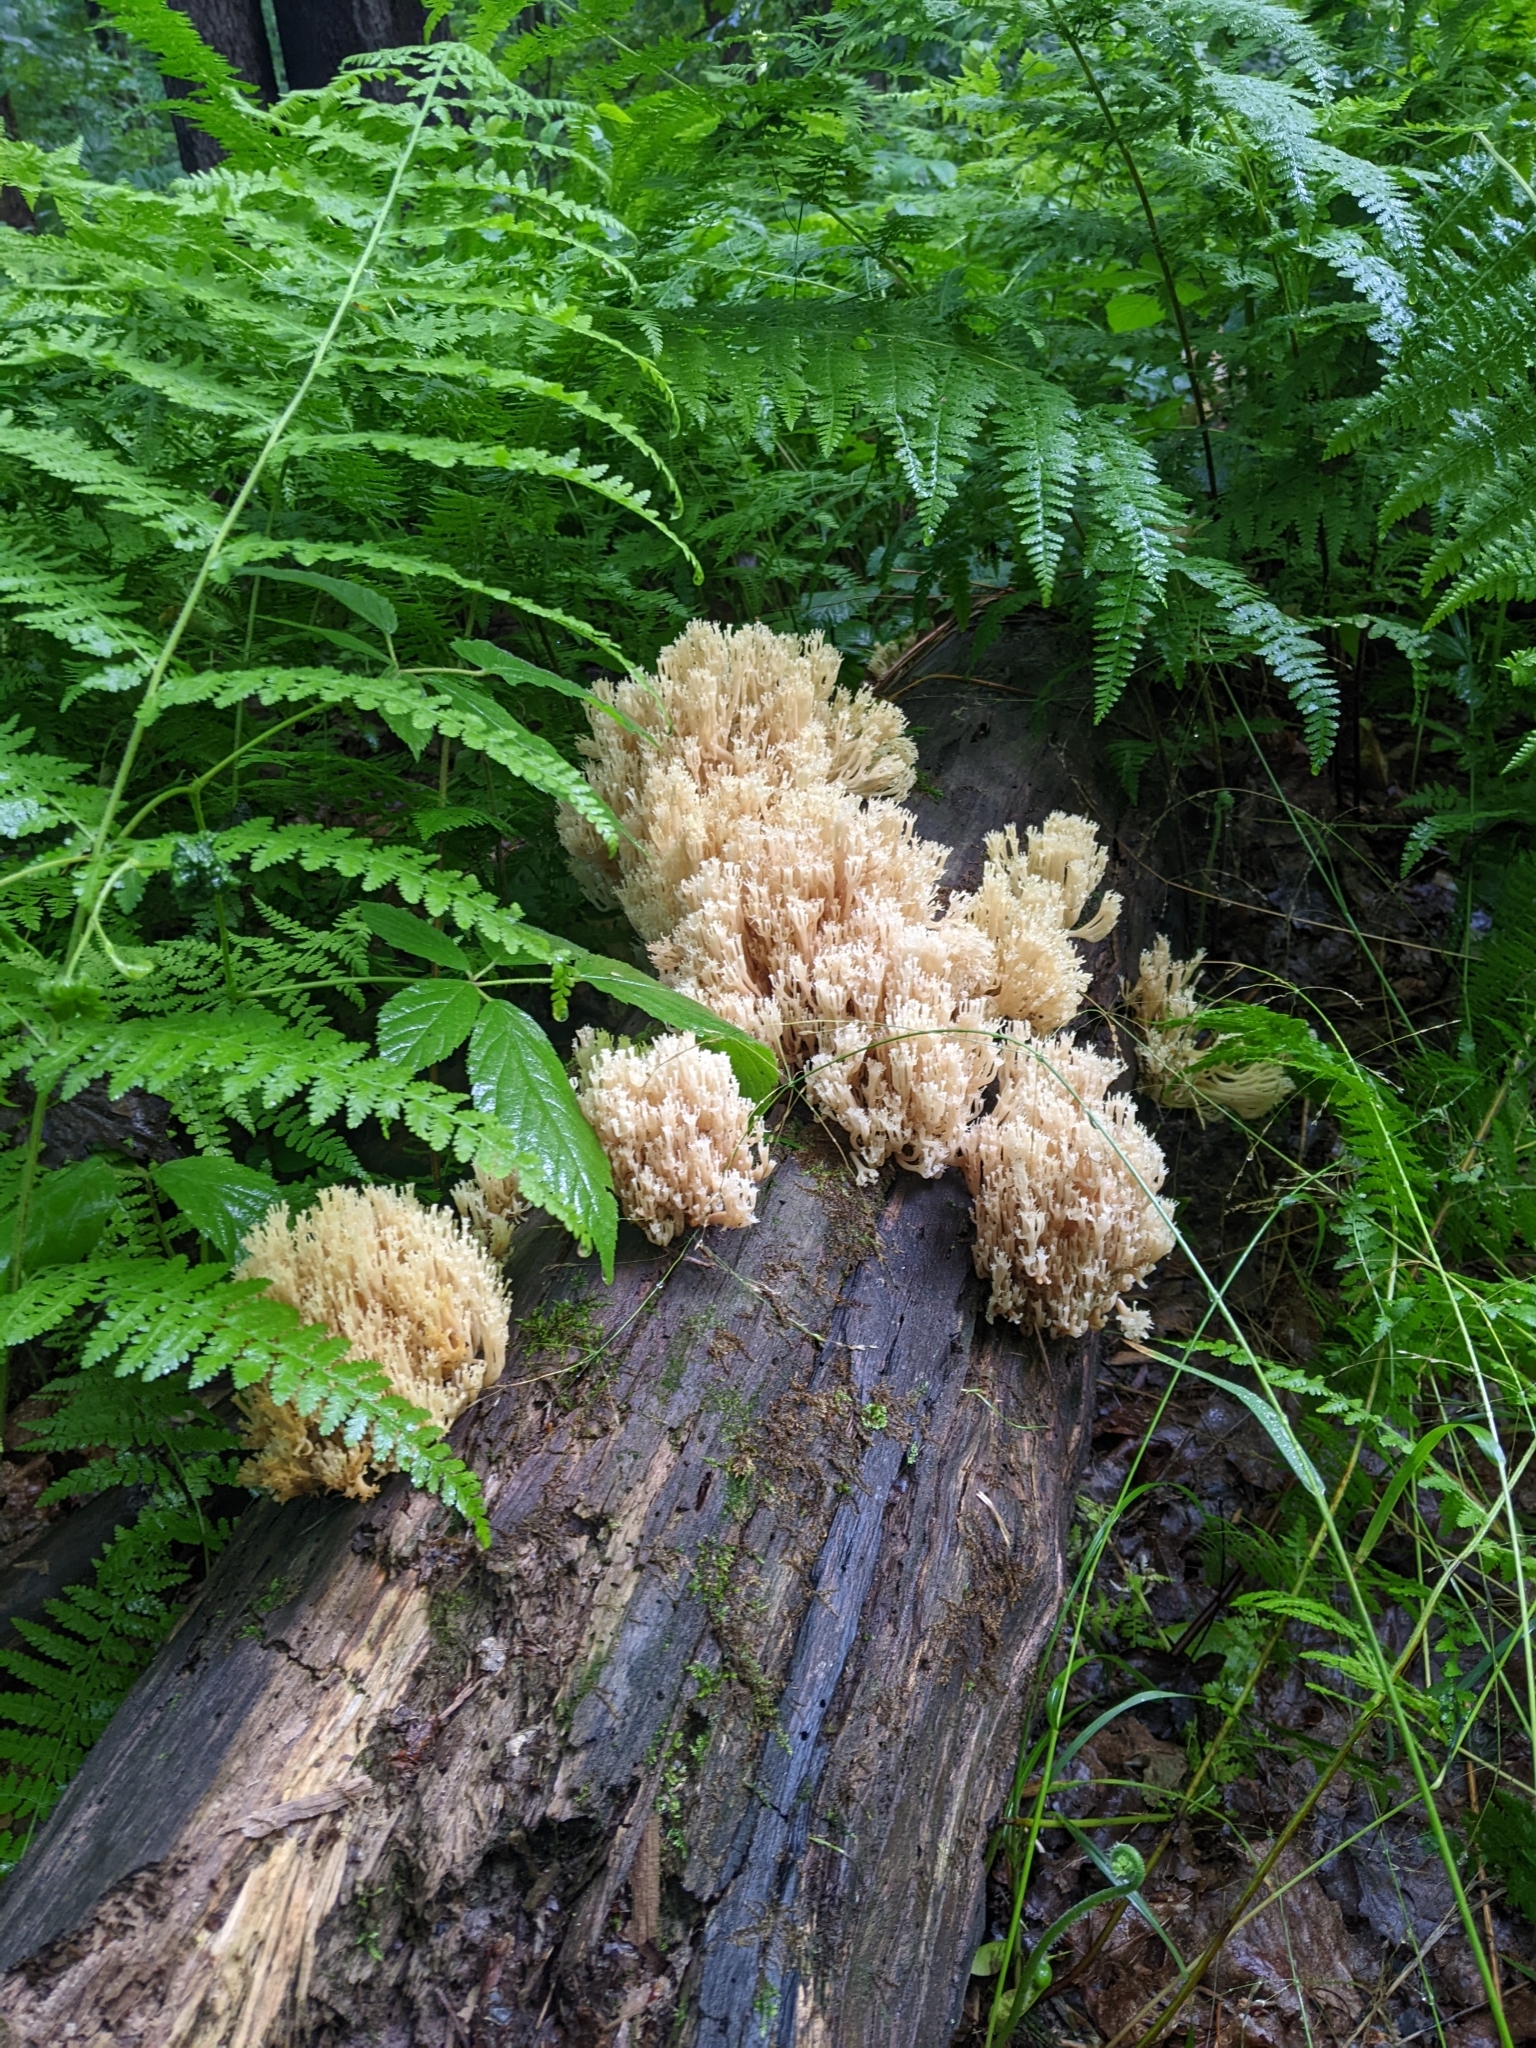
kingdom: Fungi
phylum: Basidiomycota
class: Agaricomycetes
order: Russulales
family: Auriscalpiaceae
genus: Artomyces
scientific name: Artomyces pyxidatus
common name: Crown-tipped coral fungus
